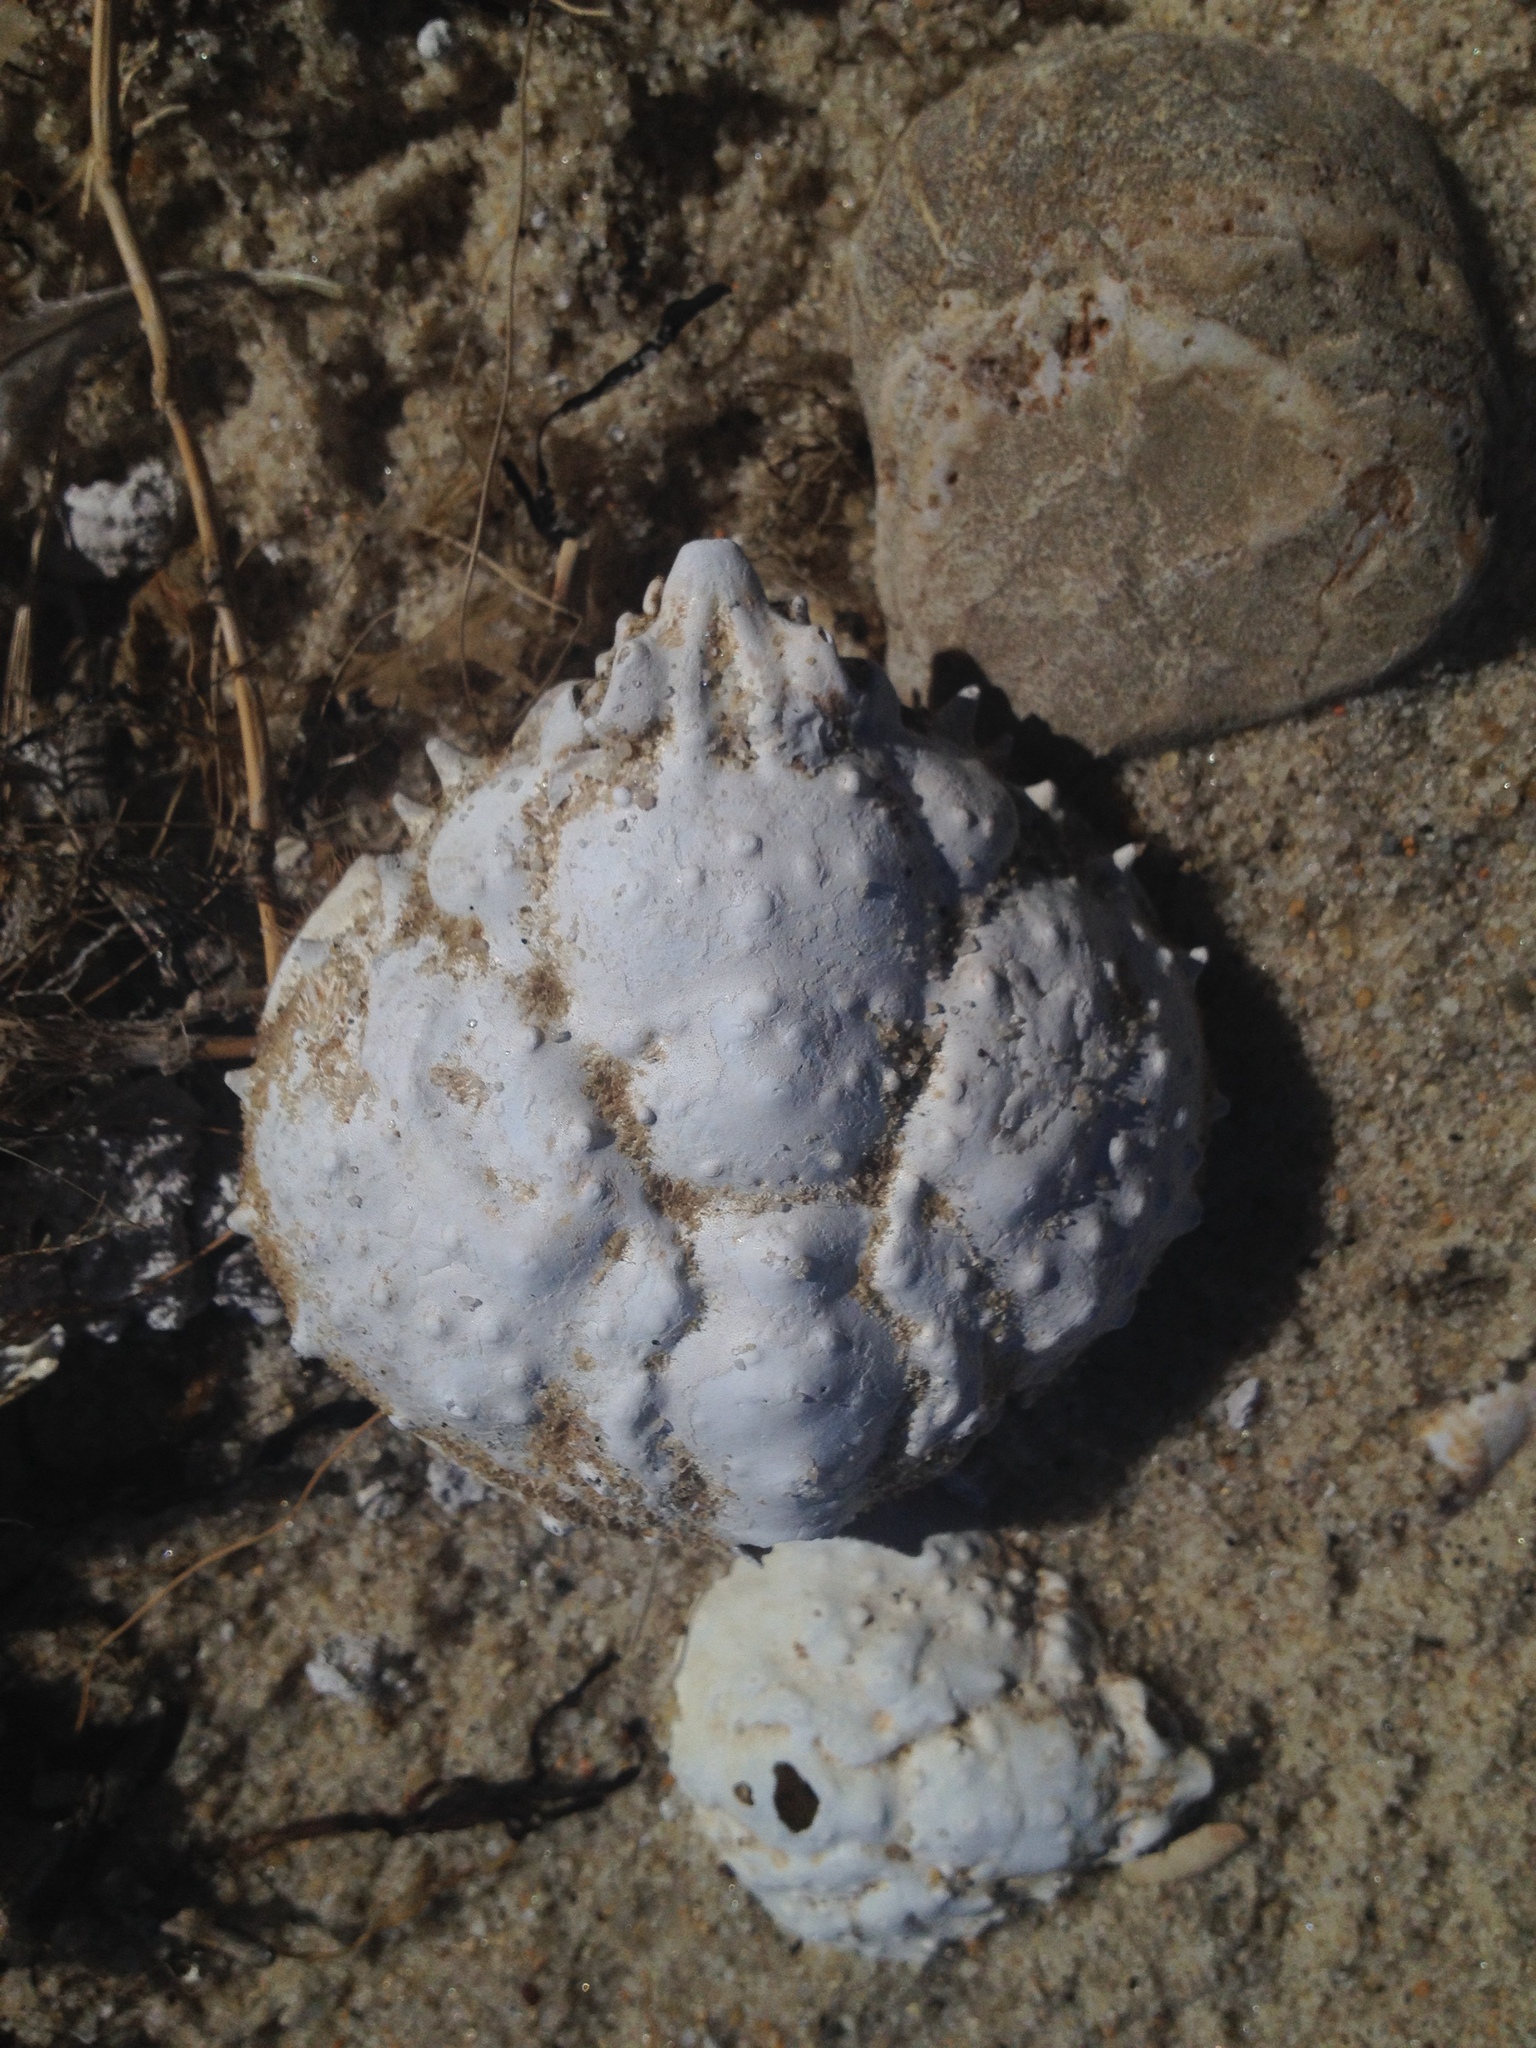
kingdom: Animalia
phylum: Arthropoda
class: Malacostraca
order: Decapoda
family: Epialtidae
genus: Libinia
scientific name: Libinia emarginata
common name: Common spider crab
